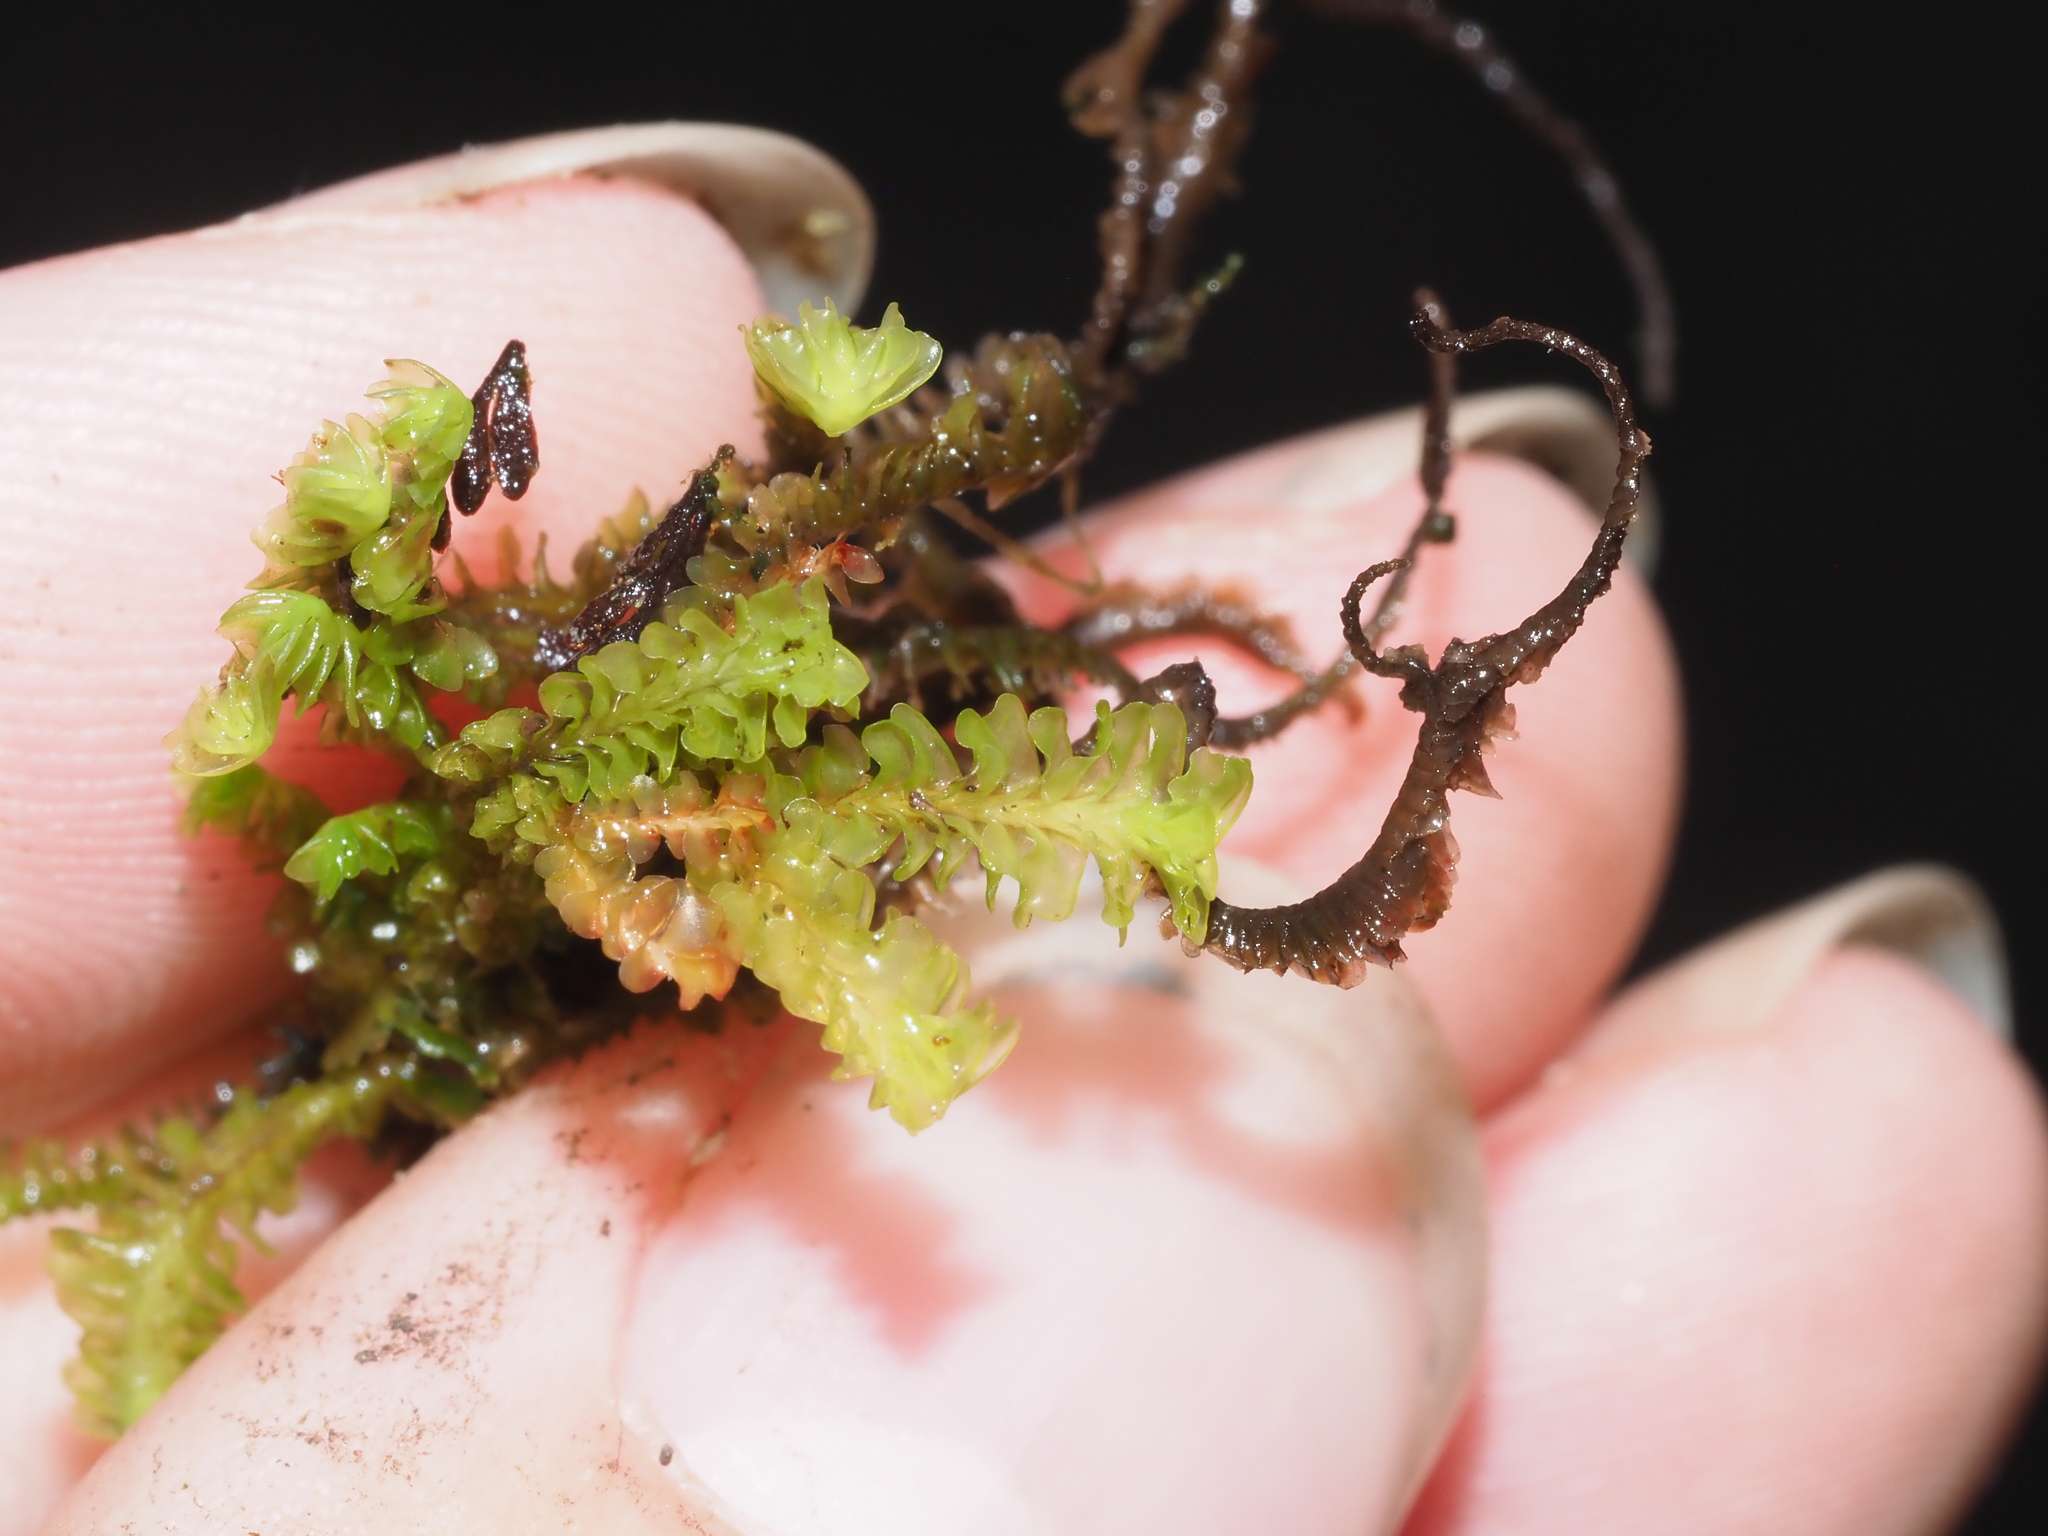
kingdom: Plantae
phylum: Marchantiophyta
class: Jungermanniopsida
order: Jungermanniales
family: Adelanthaceae
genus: Cuspidatula
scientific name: Cuspidatula robusta
